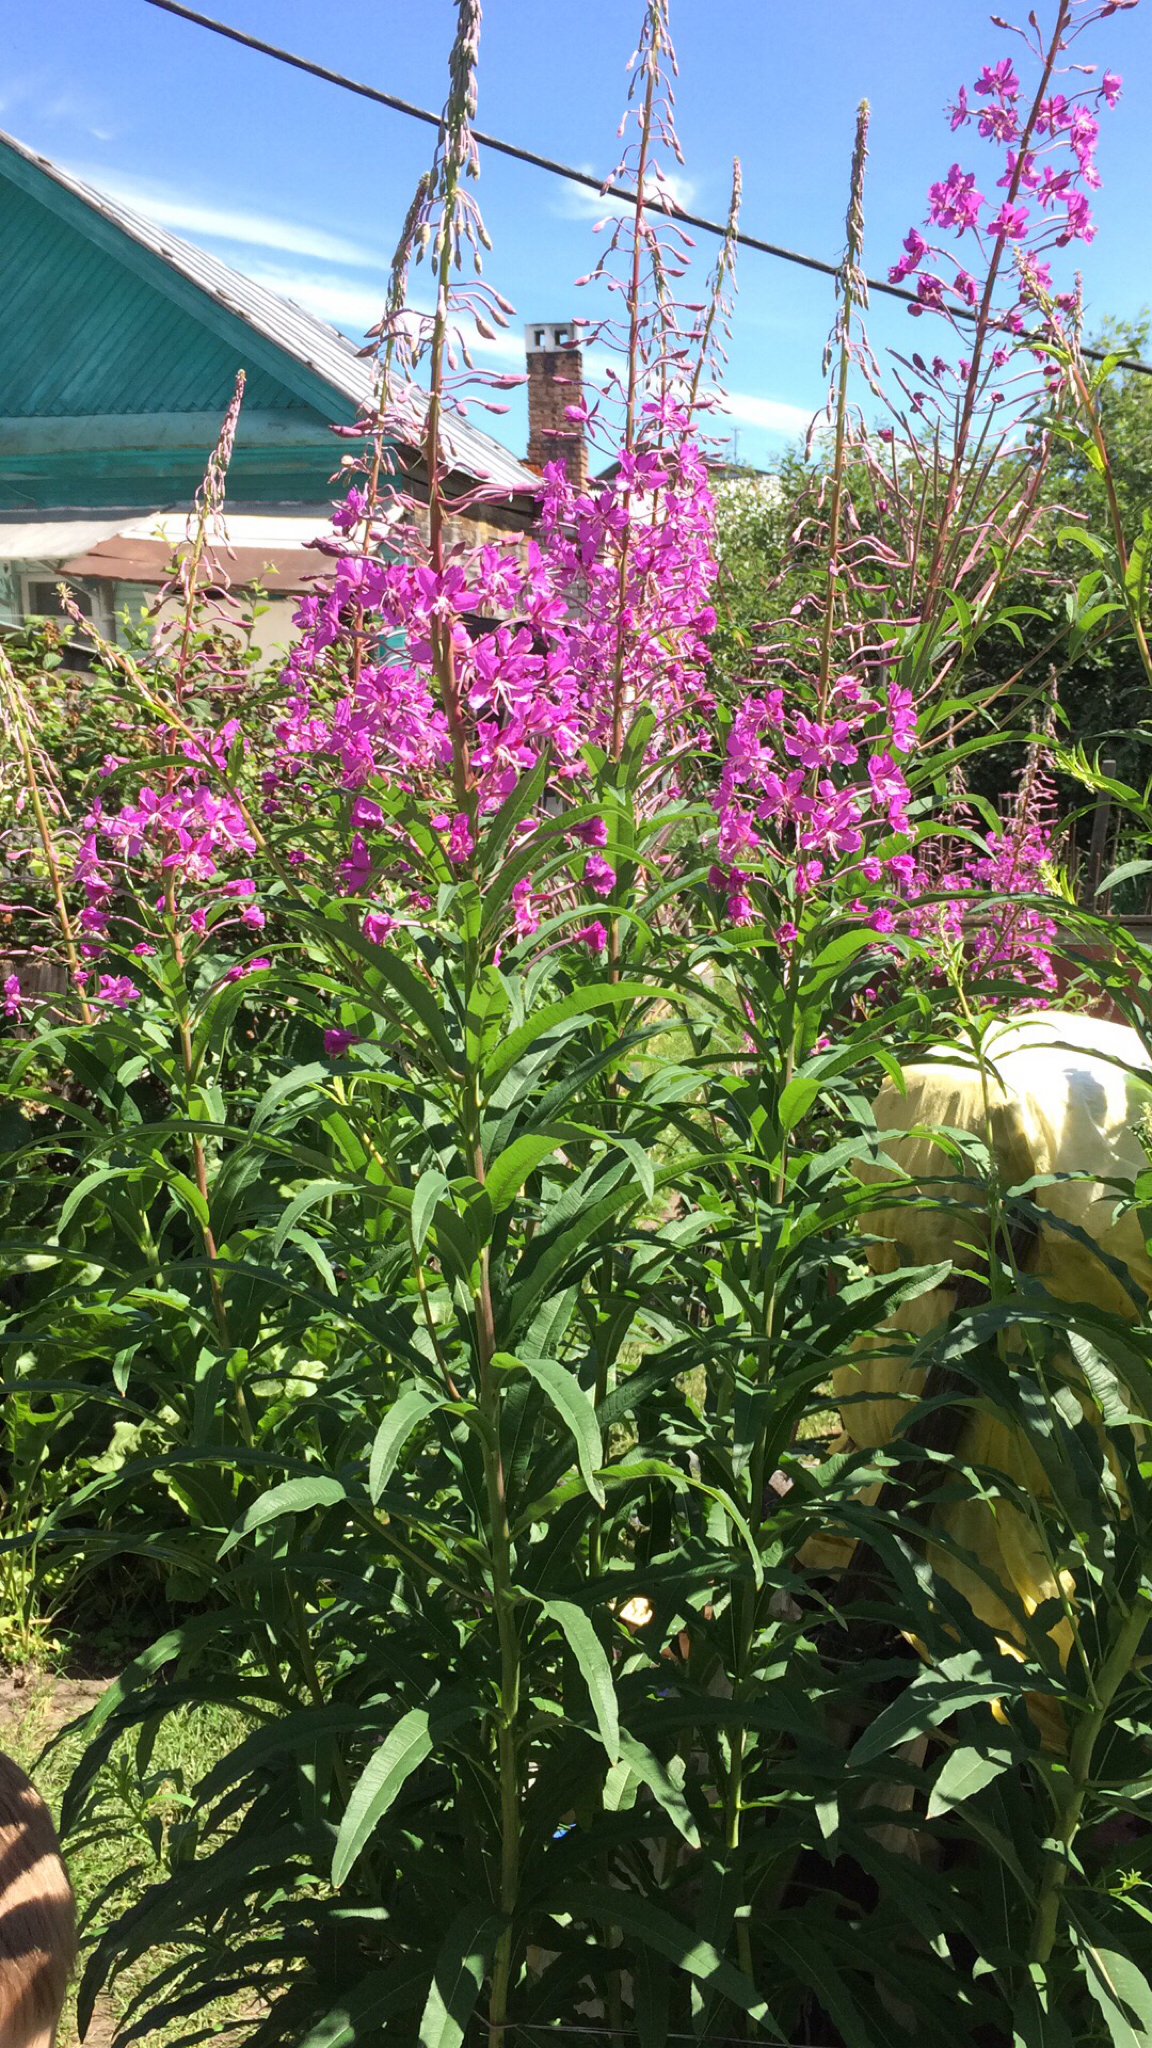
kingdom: Plantae
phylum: Tracheophyta
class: Magnoliopsida
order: Myrtales
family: Onagraceae
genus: Chamaenerion
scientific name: Chamaenerion angustifolium
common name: Fireweed
